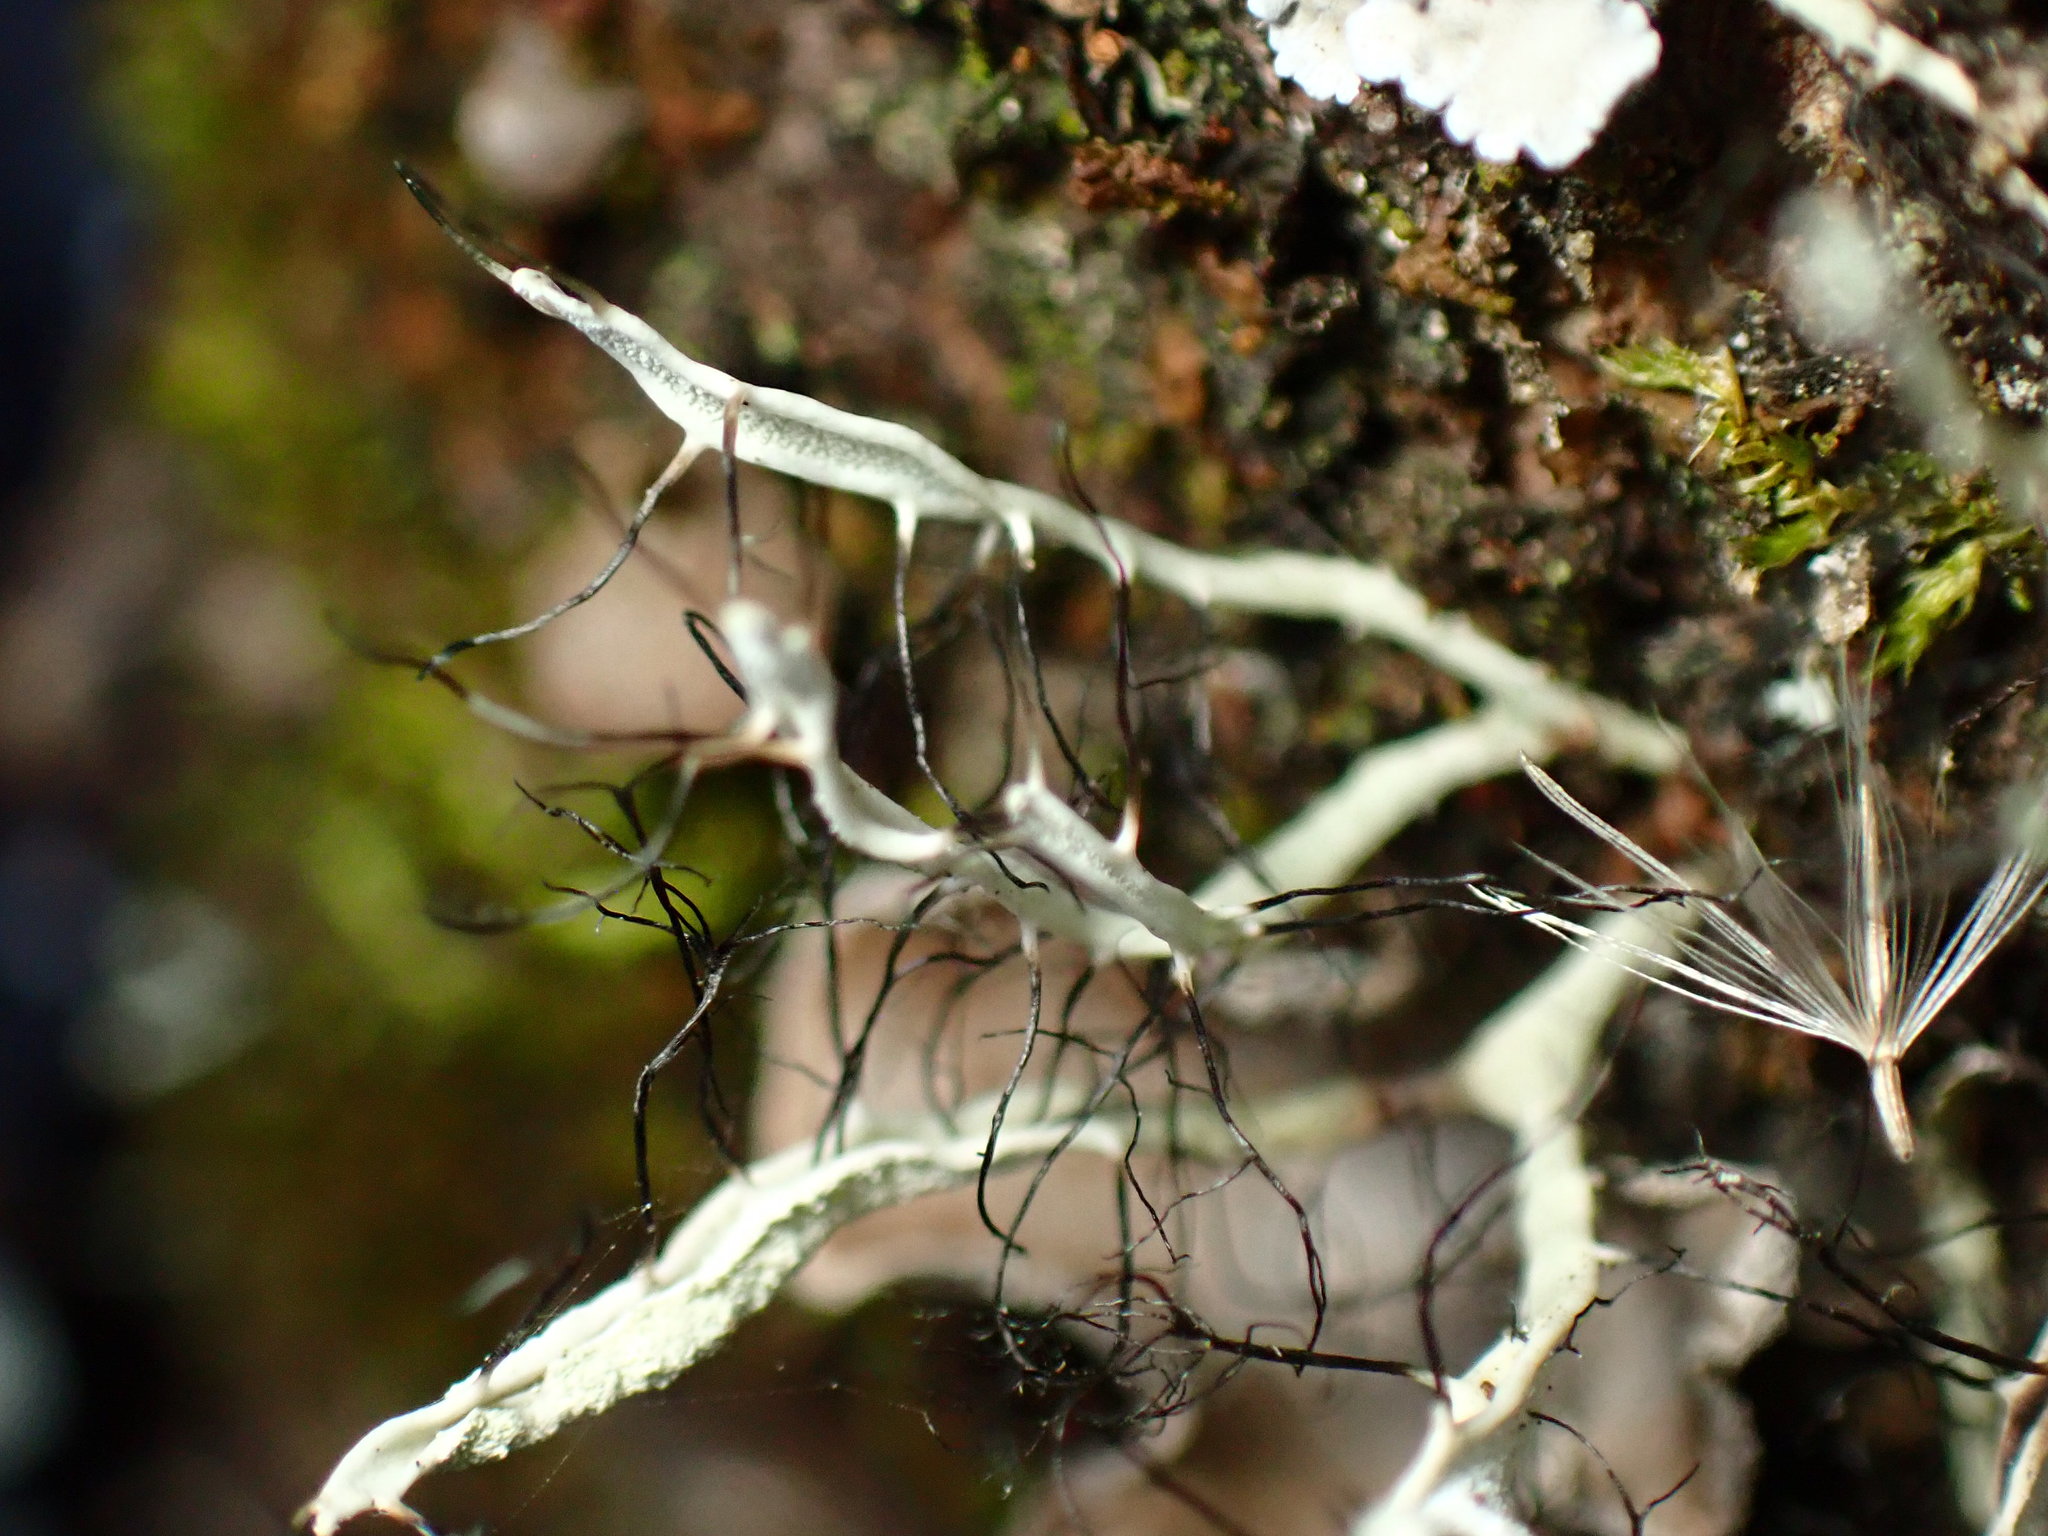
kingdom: Fungi
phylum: Ascomycota
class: Lecanoromycetes
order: Caliciales
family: Physciaceae
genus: Leucodermia
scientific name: Leucodermia leucomelos
